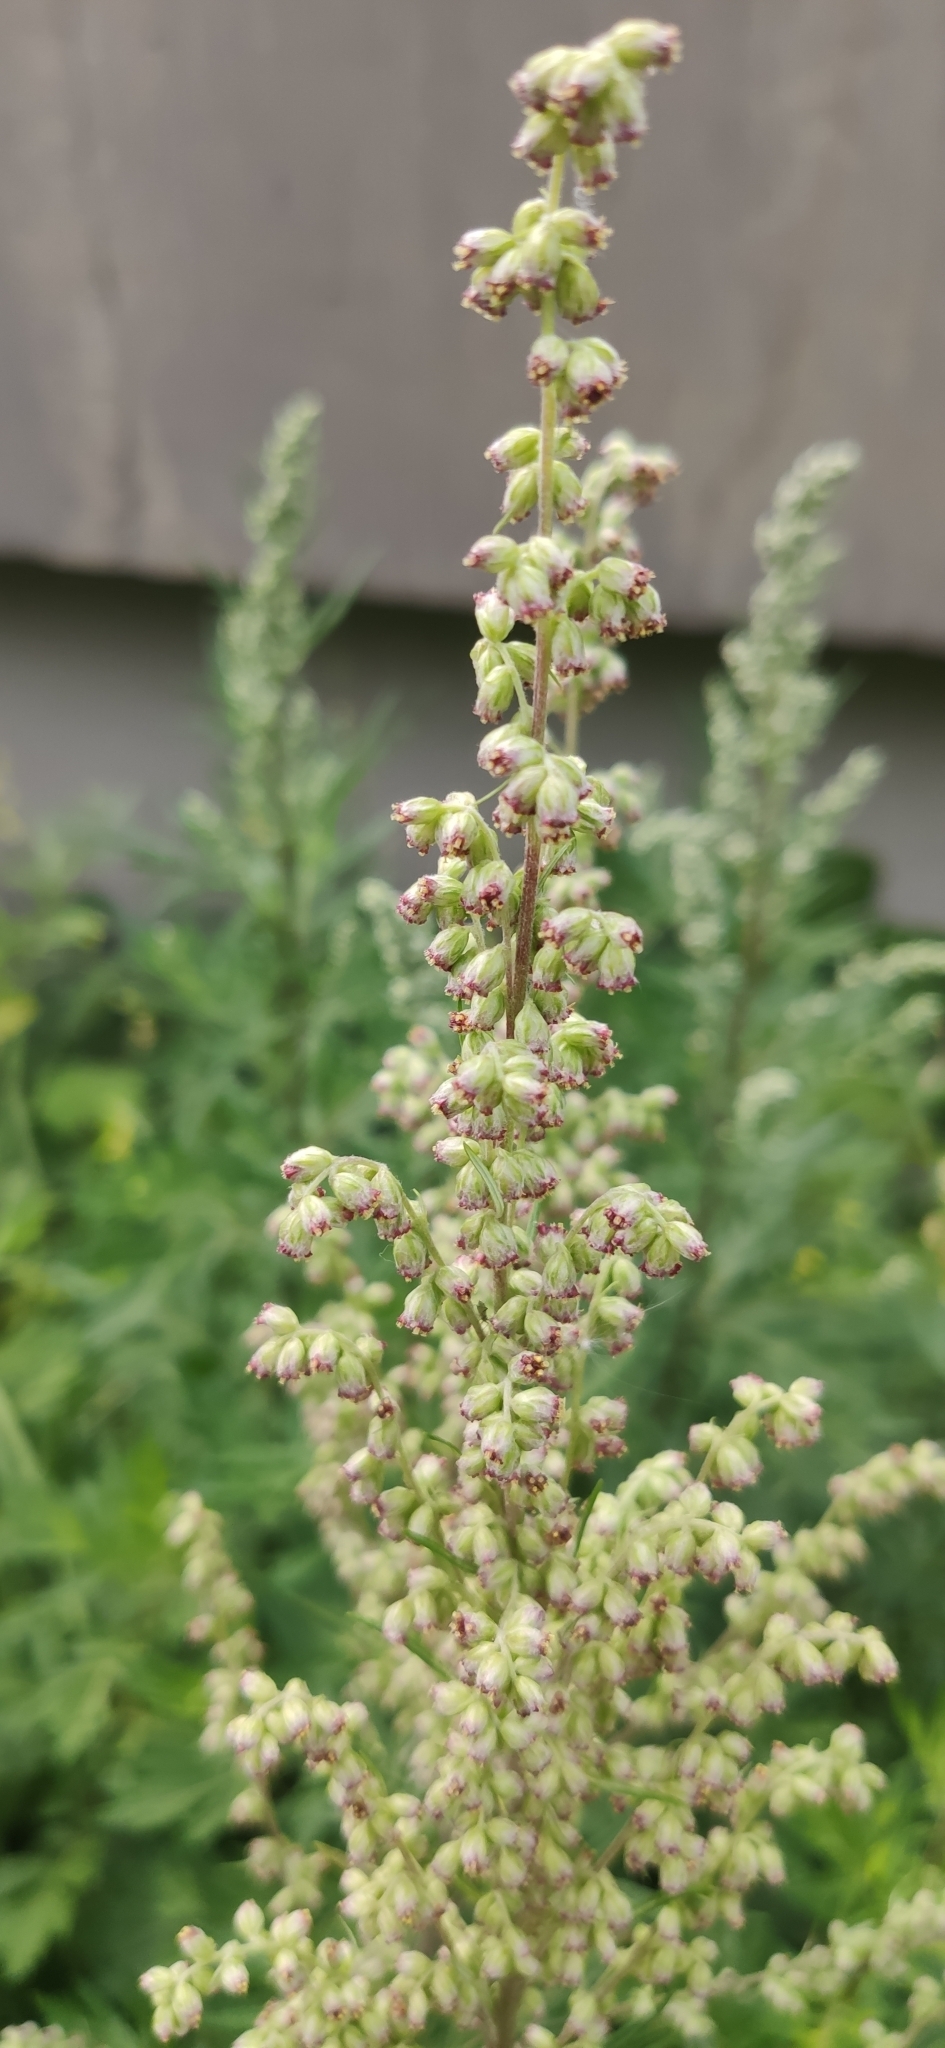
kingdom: Plantae
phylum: Tracheophyta
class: Magnoliopsida
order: Asterales
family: Asteraceae
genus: Artemisia
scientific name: Artemisia vulgaris
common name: Mugwort
